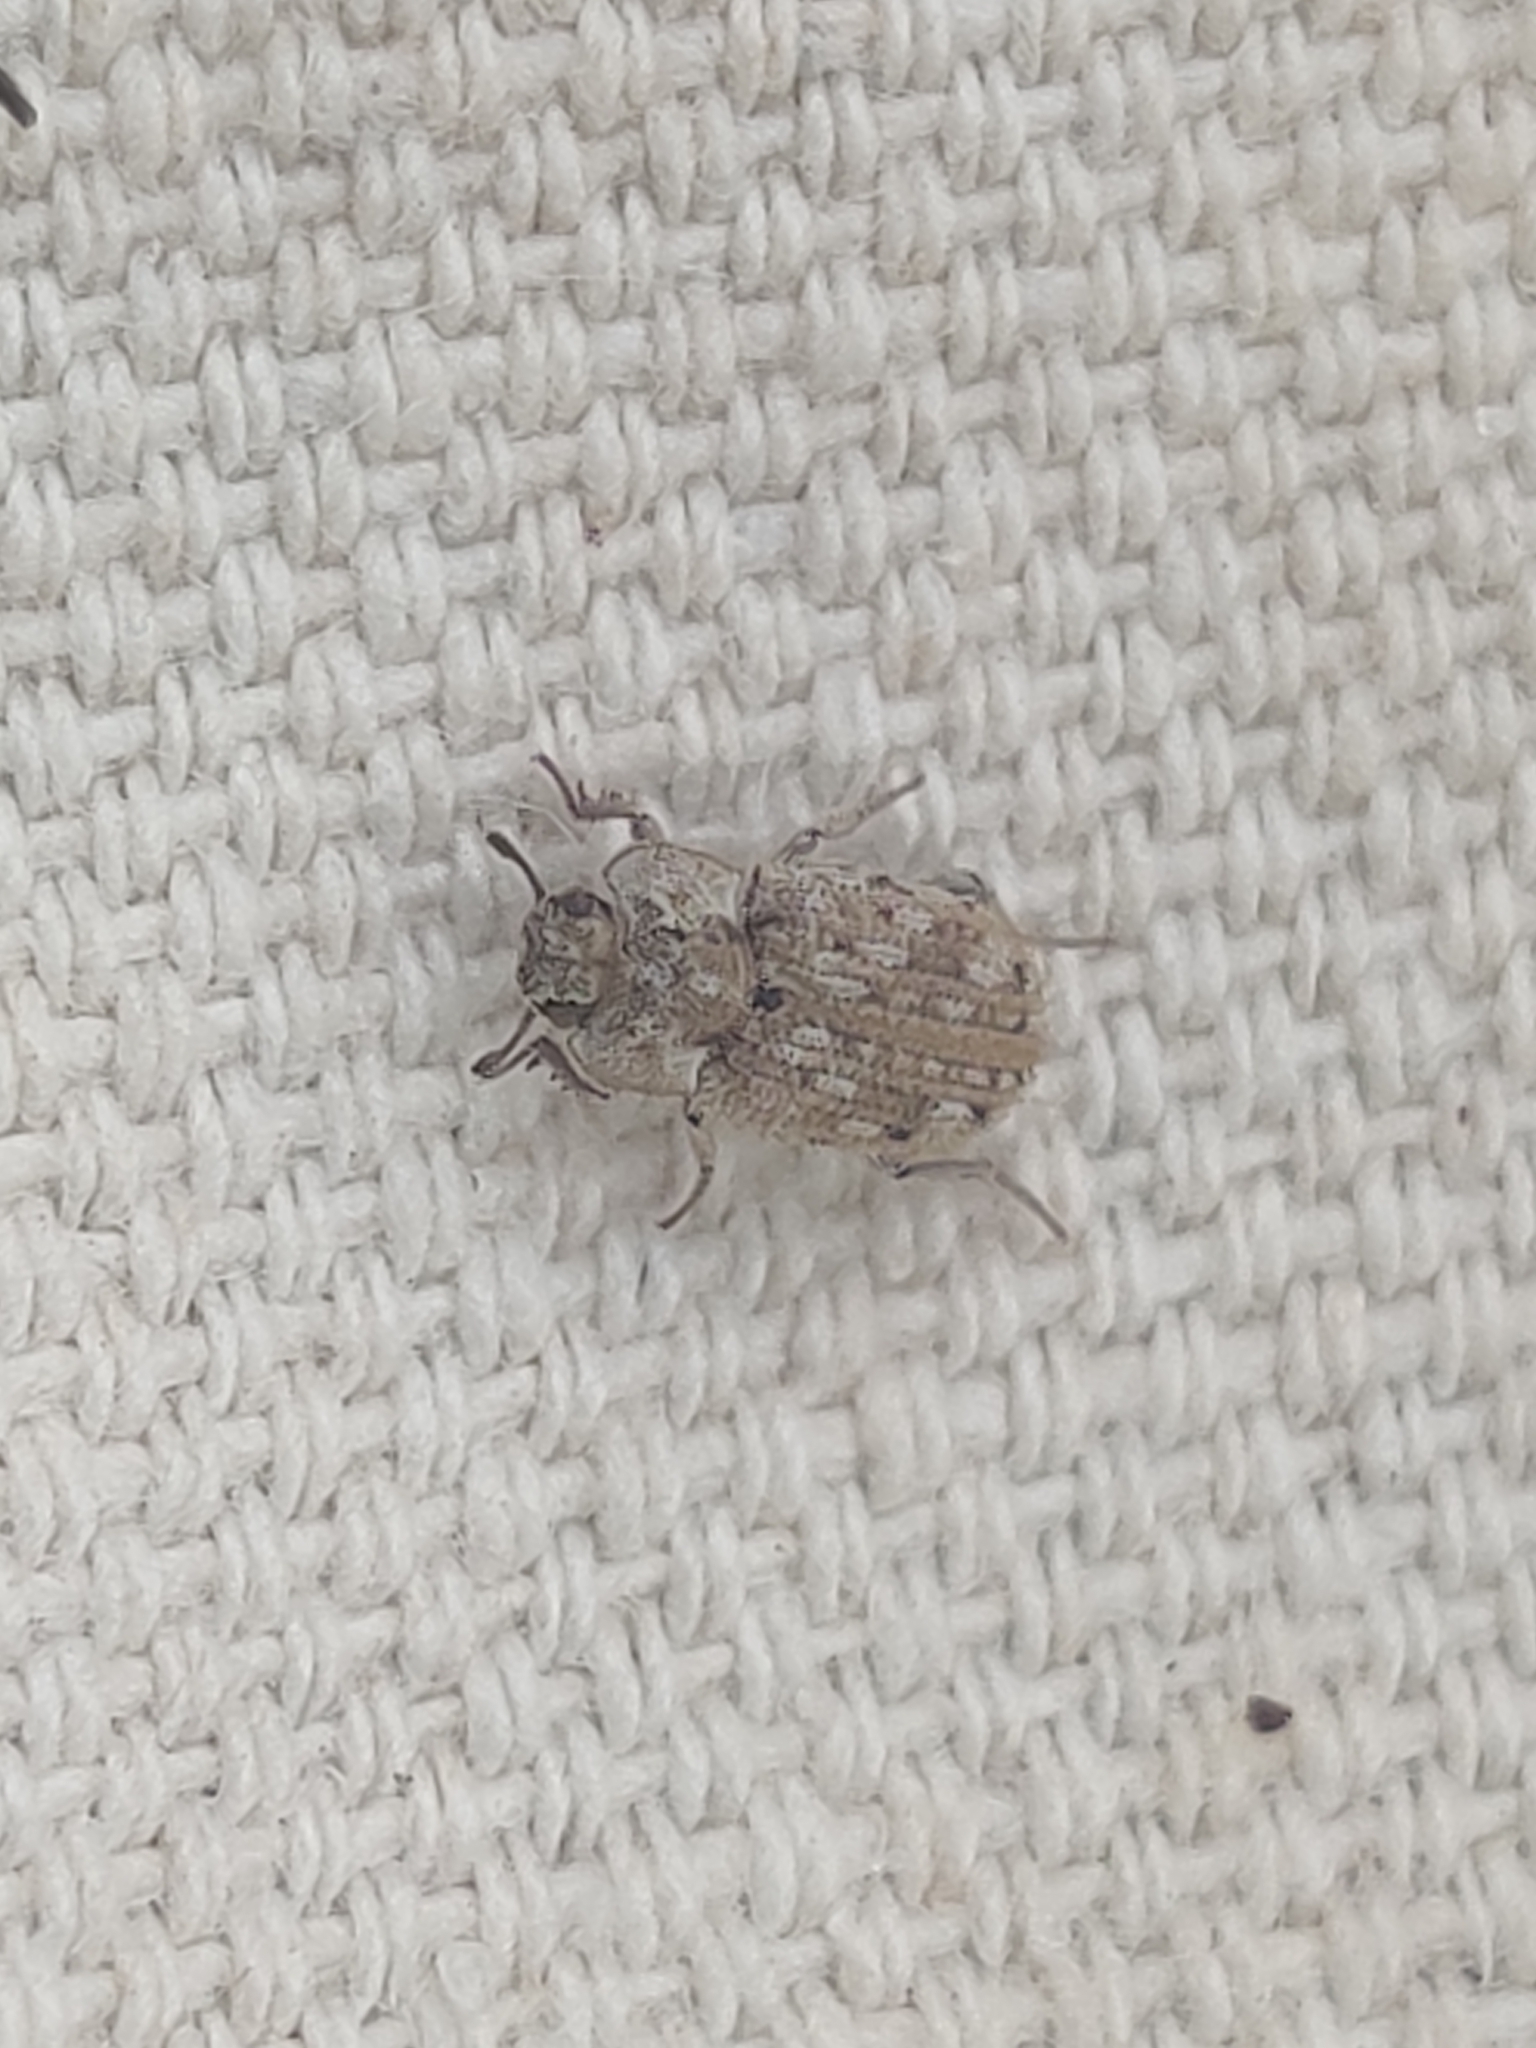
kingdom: Animalia
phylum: Arthropoda
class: Insecta
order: Coleoptera
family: Tenebrionidae
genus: Leichenum
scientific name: Leichenum canaliculatum
